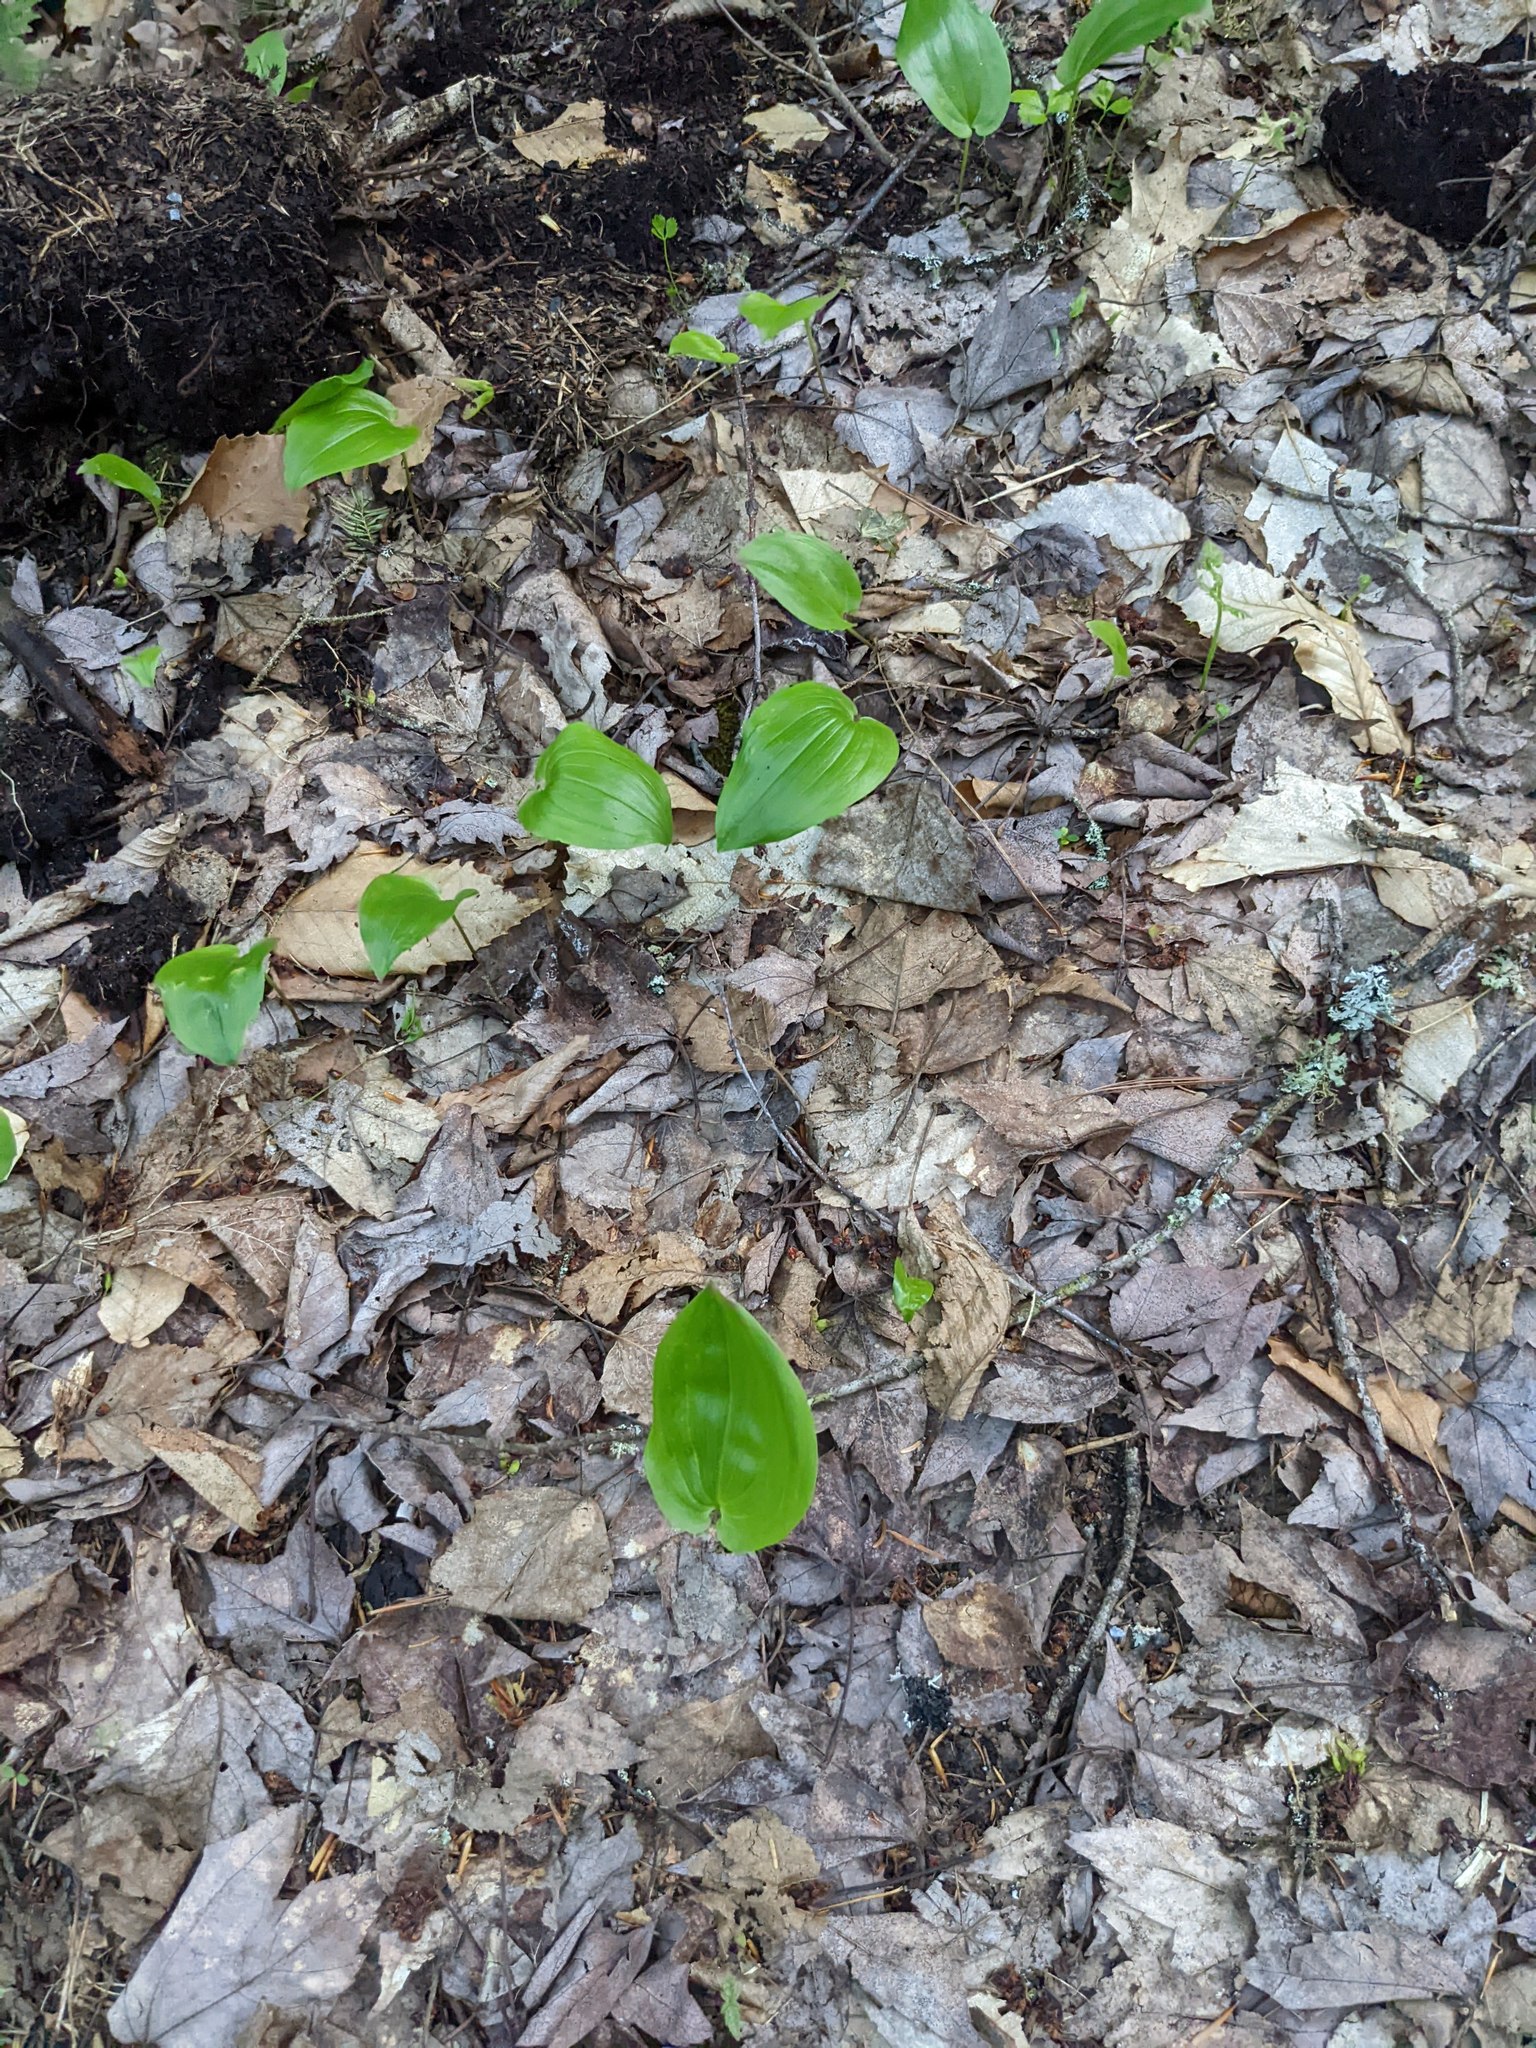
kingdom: Plantae
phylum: Tracheophyta
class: Liliopsida
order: Asparagales
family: Asparagaceae
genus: Maianthemum
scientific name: Maianthemum canadense
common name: False lily-of-the-valley
